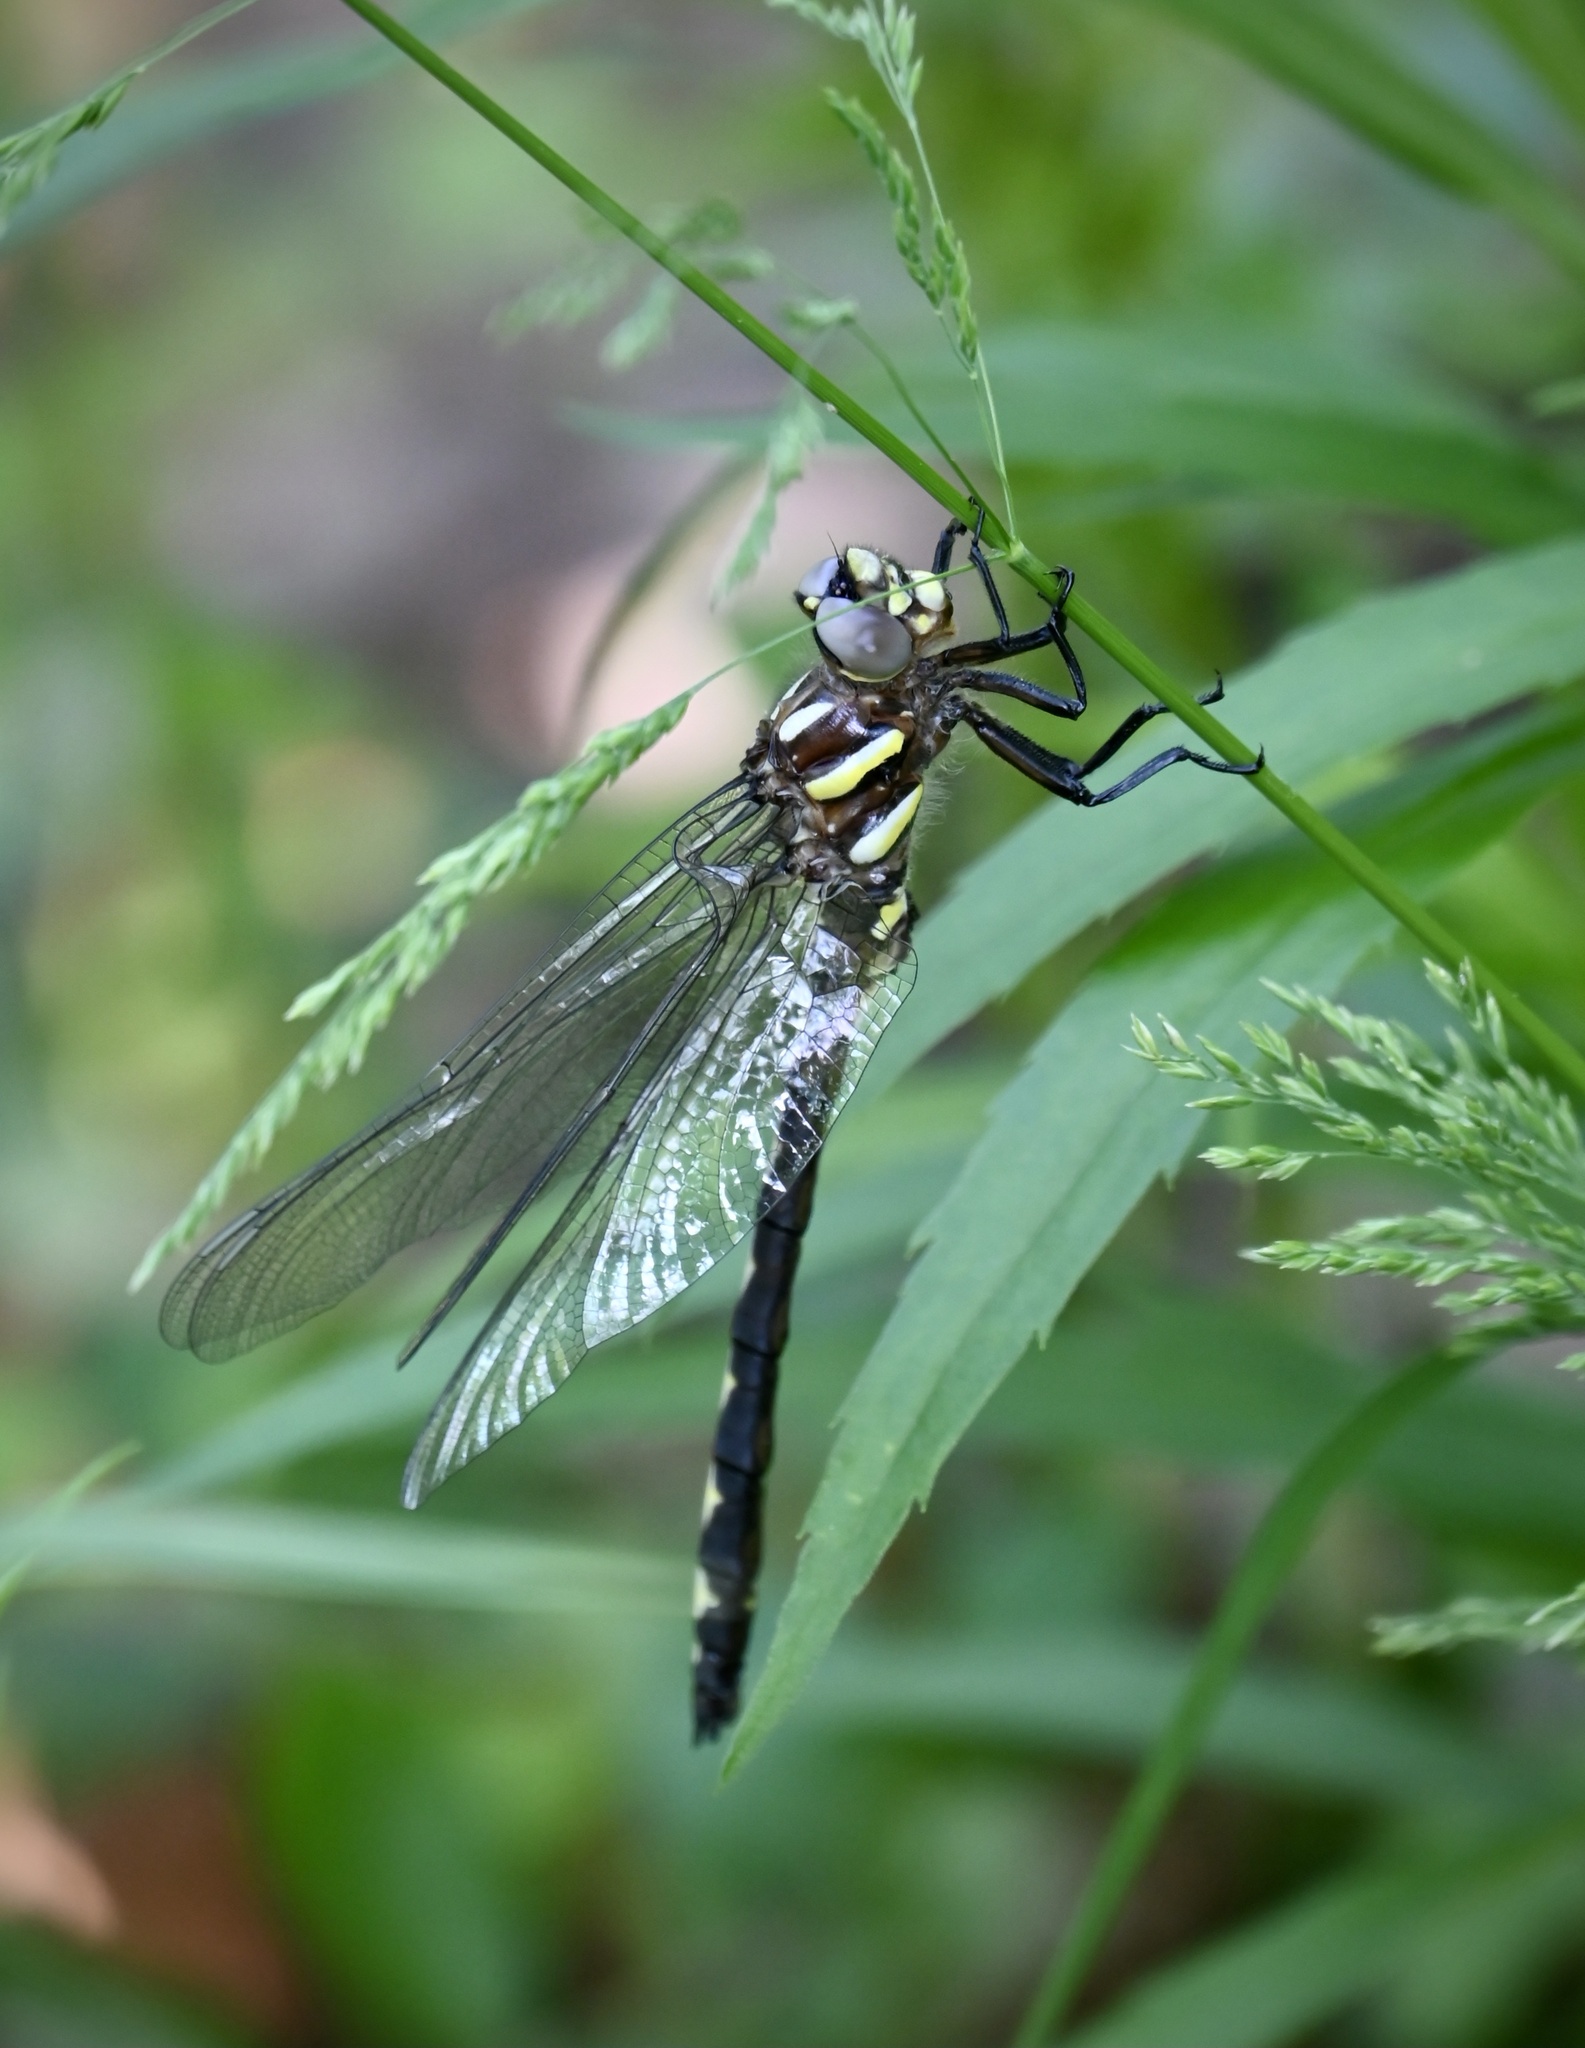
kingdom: Animalia
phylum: Arthropoda
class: Insecta
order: Odonata
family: Cordulegastridae
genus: Cordulegaster
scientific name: Cordulegaster obliqua
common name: Arrowhead spiketail
